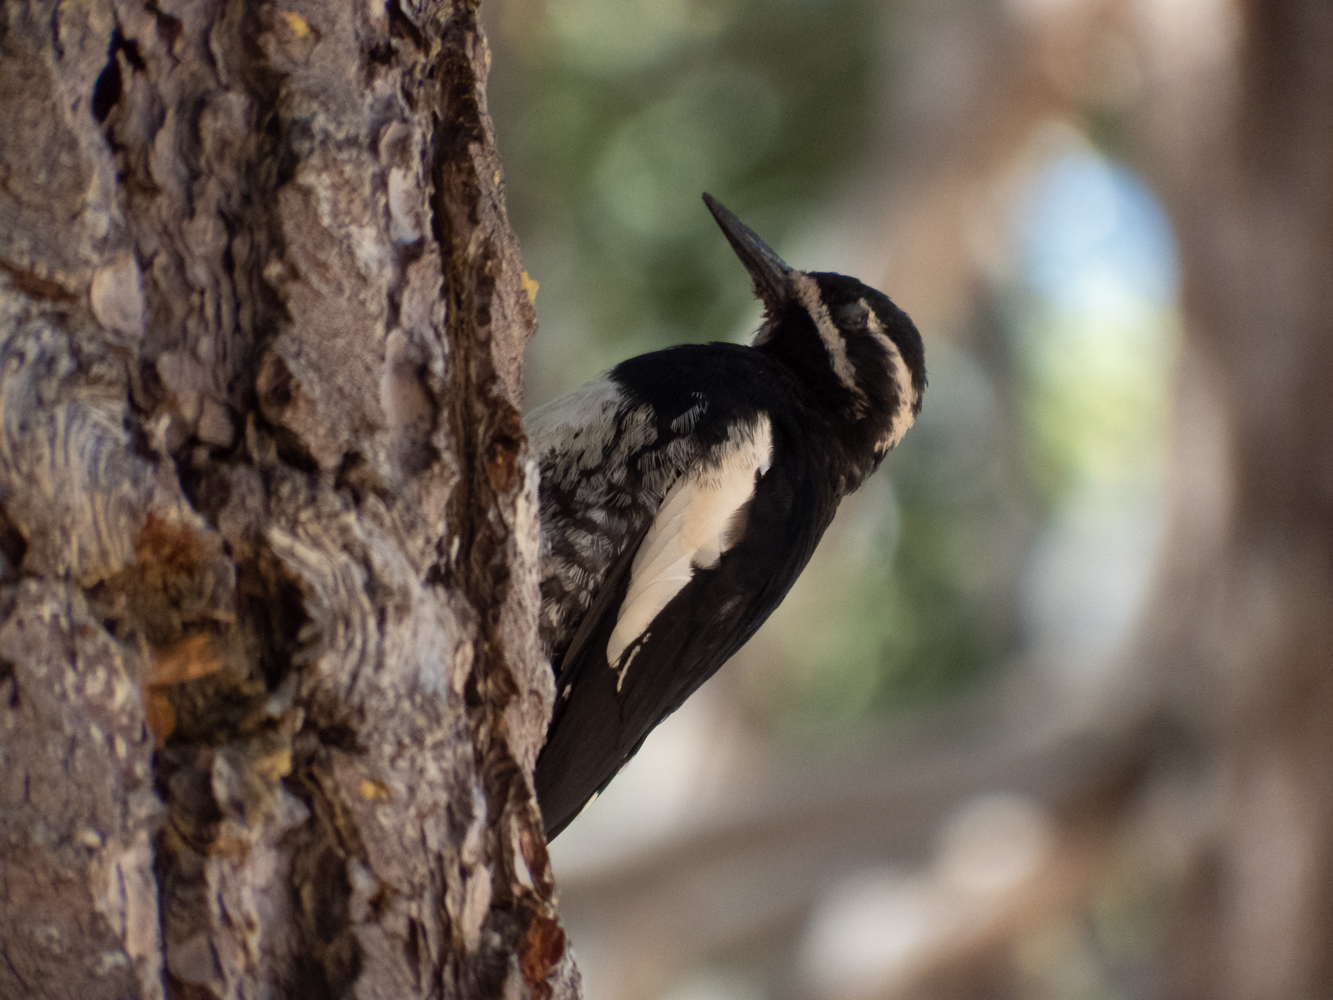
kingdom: Animalia
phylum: Chordata
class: Aves
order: Piciformes
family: Picidae
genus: Sphyrapicus
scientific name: Sphyrapicus thyroideus
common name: Williamson's sapsucker
